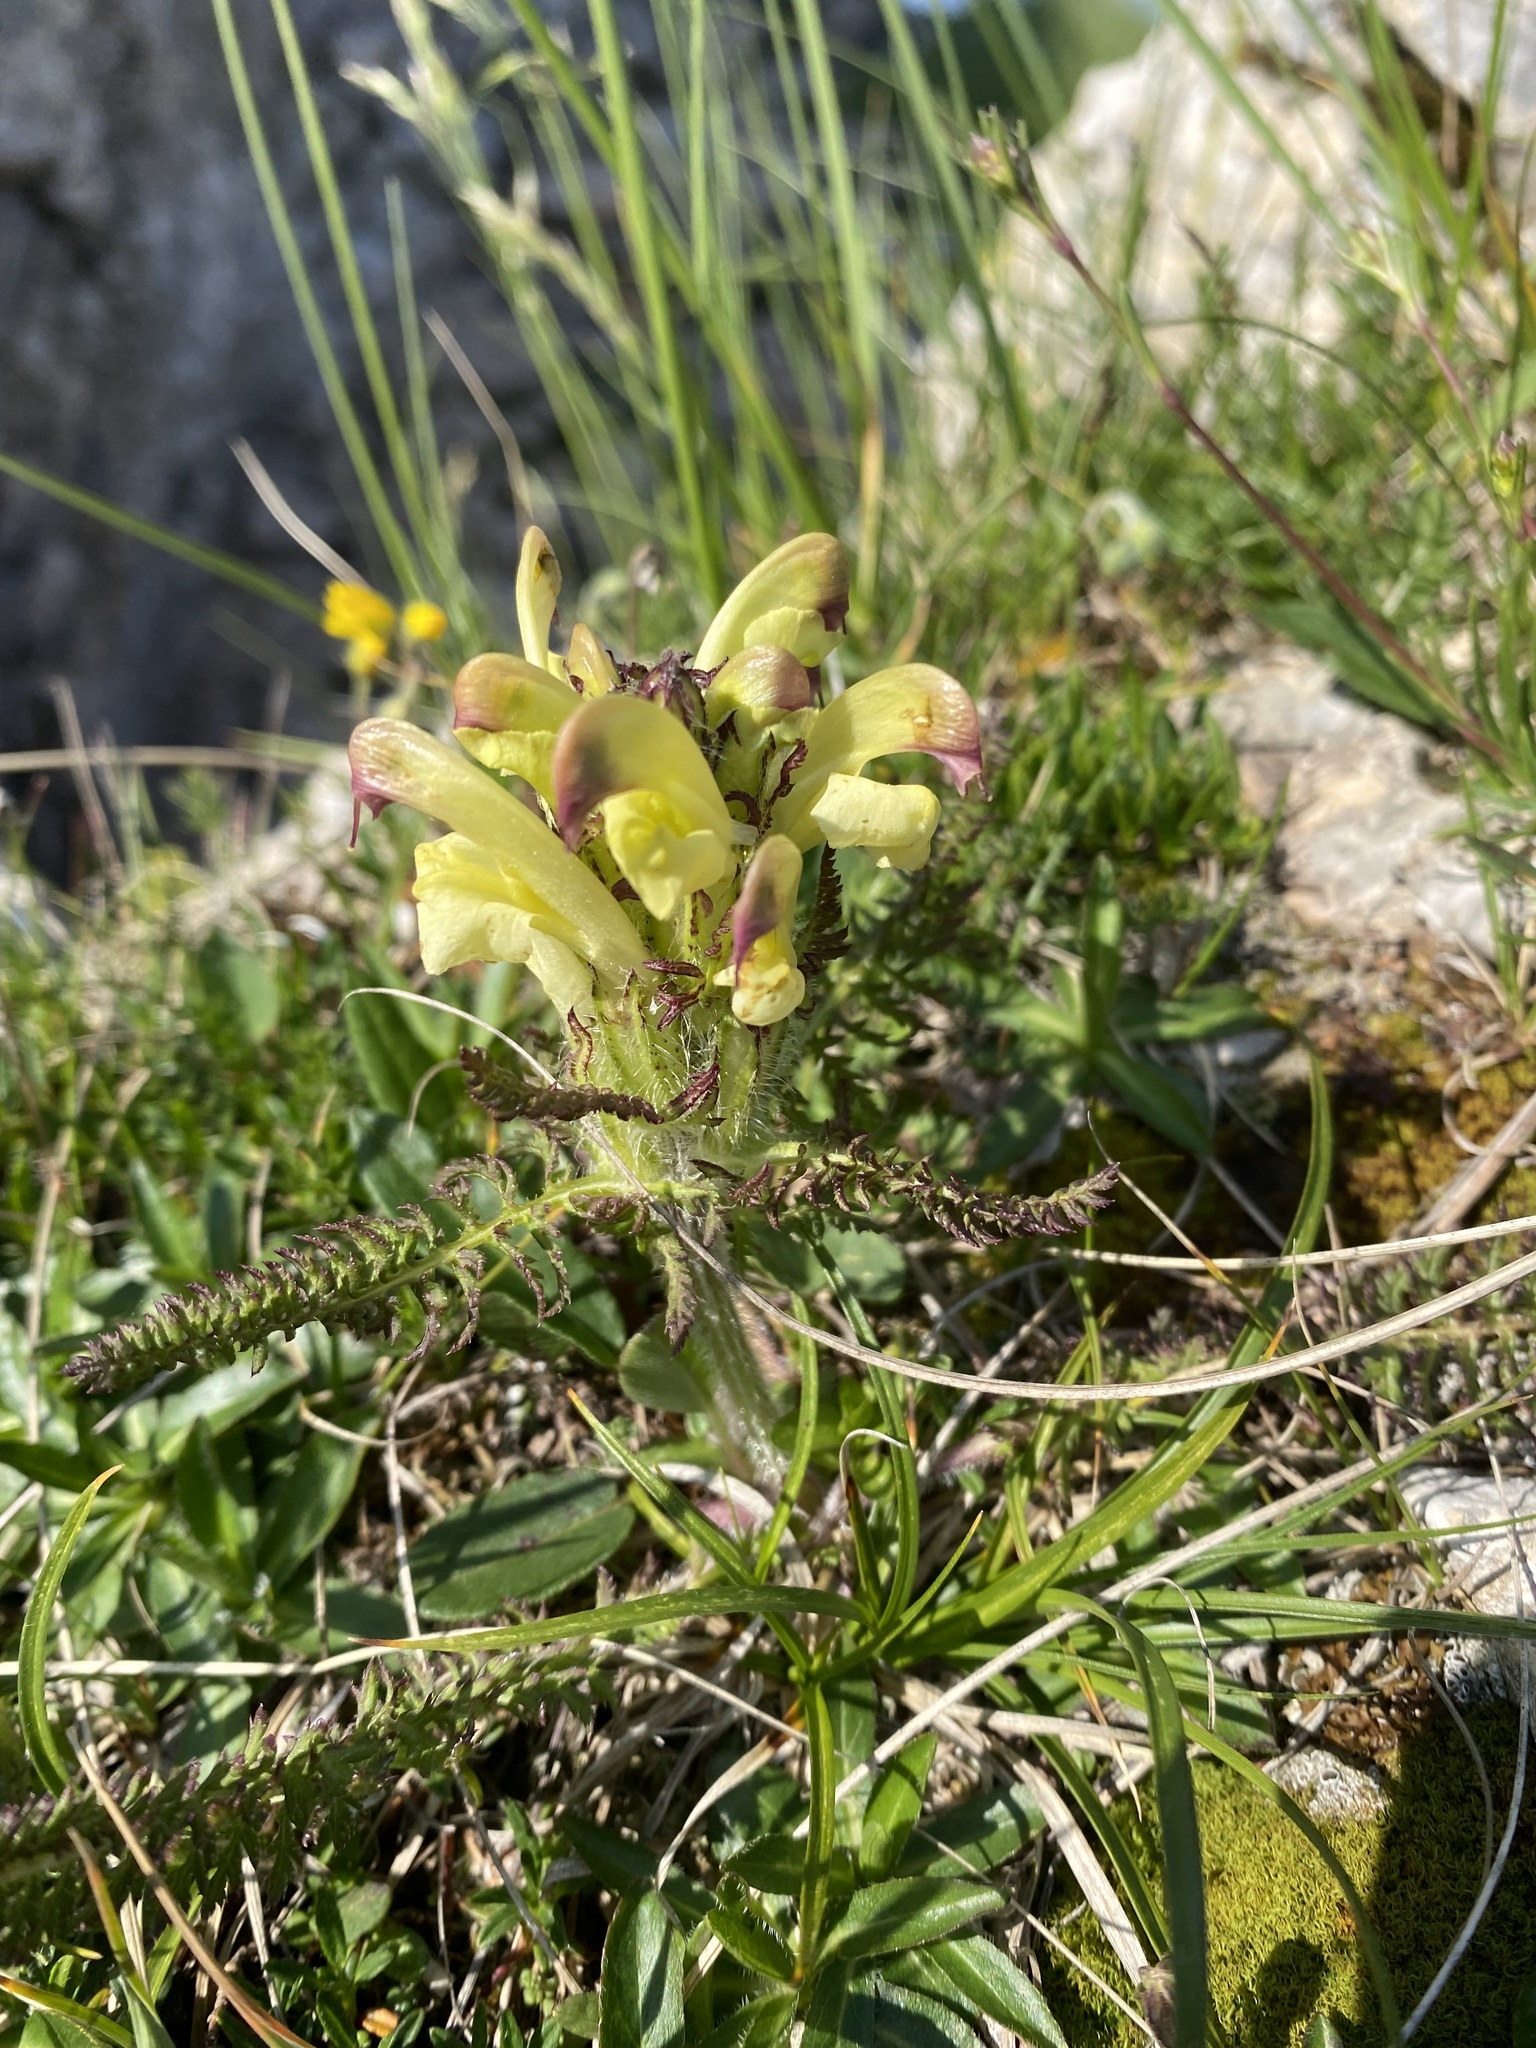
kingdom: Plantae
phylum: Tracheophyta
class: Magnoliopsida
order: Lamiales
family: Orobanchaceae
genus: Pedicularis
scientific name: Pedicularis chroorrhyncha
